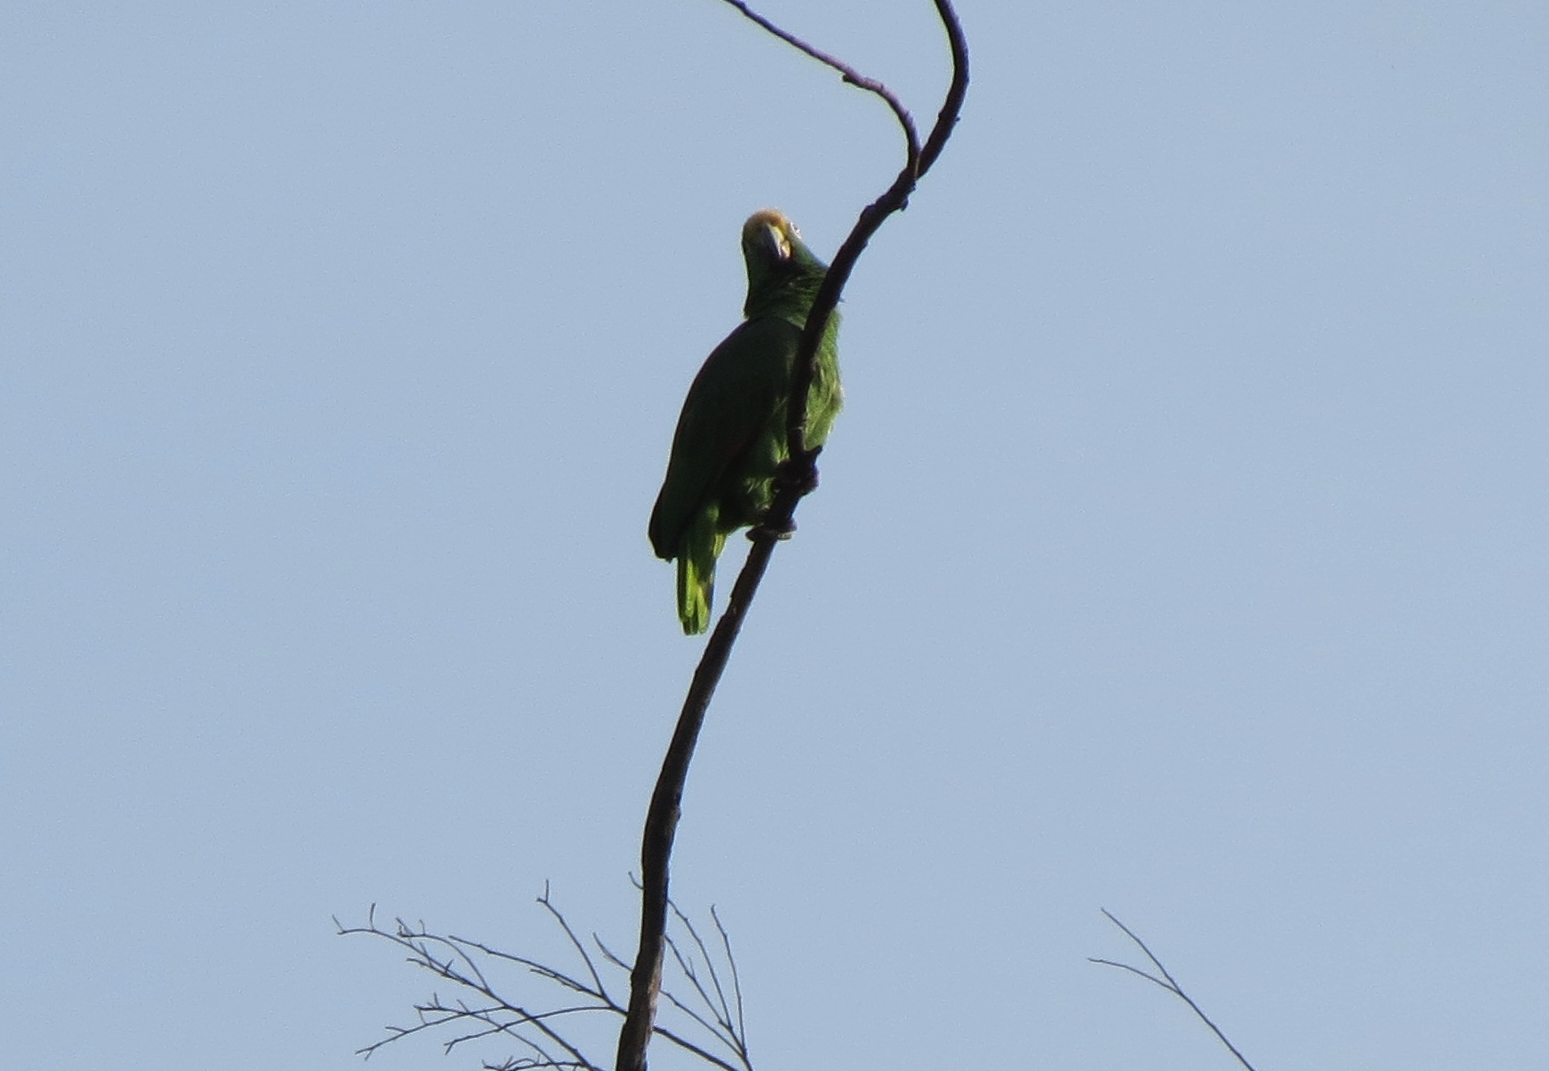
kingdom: Animalia
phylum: Chordata
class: Aves
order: Psittaciformes
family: Psittacidae
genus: Amazona
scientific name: Amazona ochrocephala
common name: Yellow-crowned amazon
